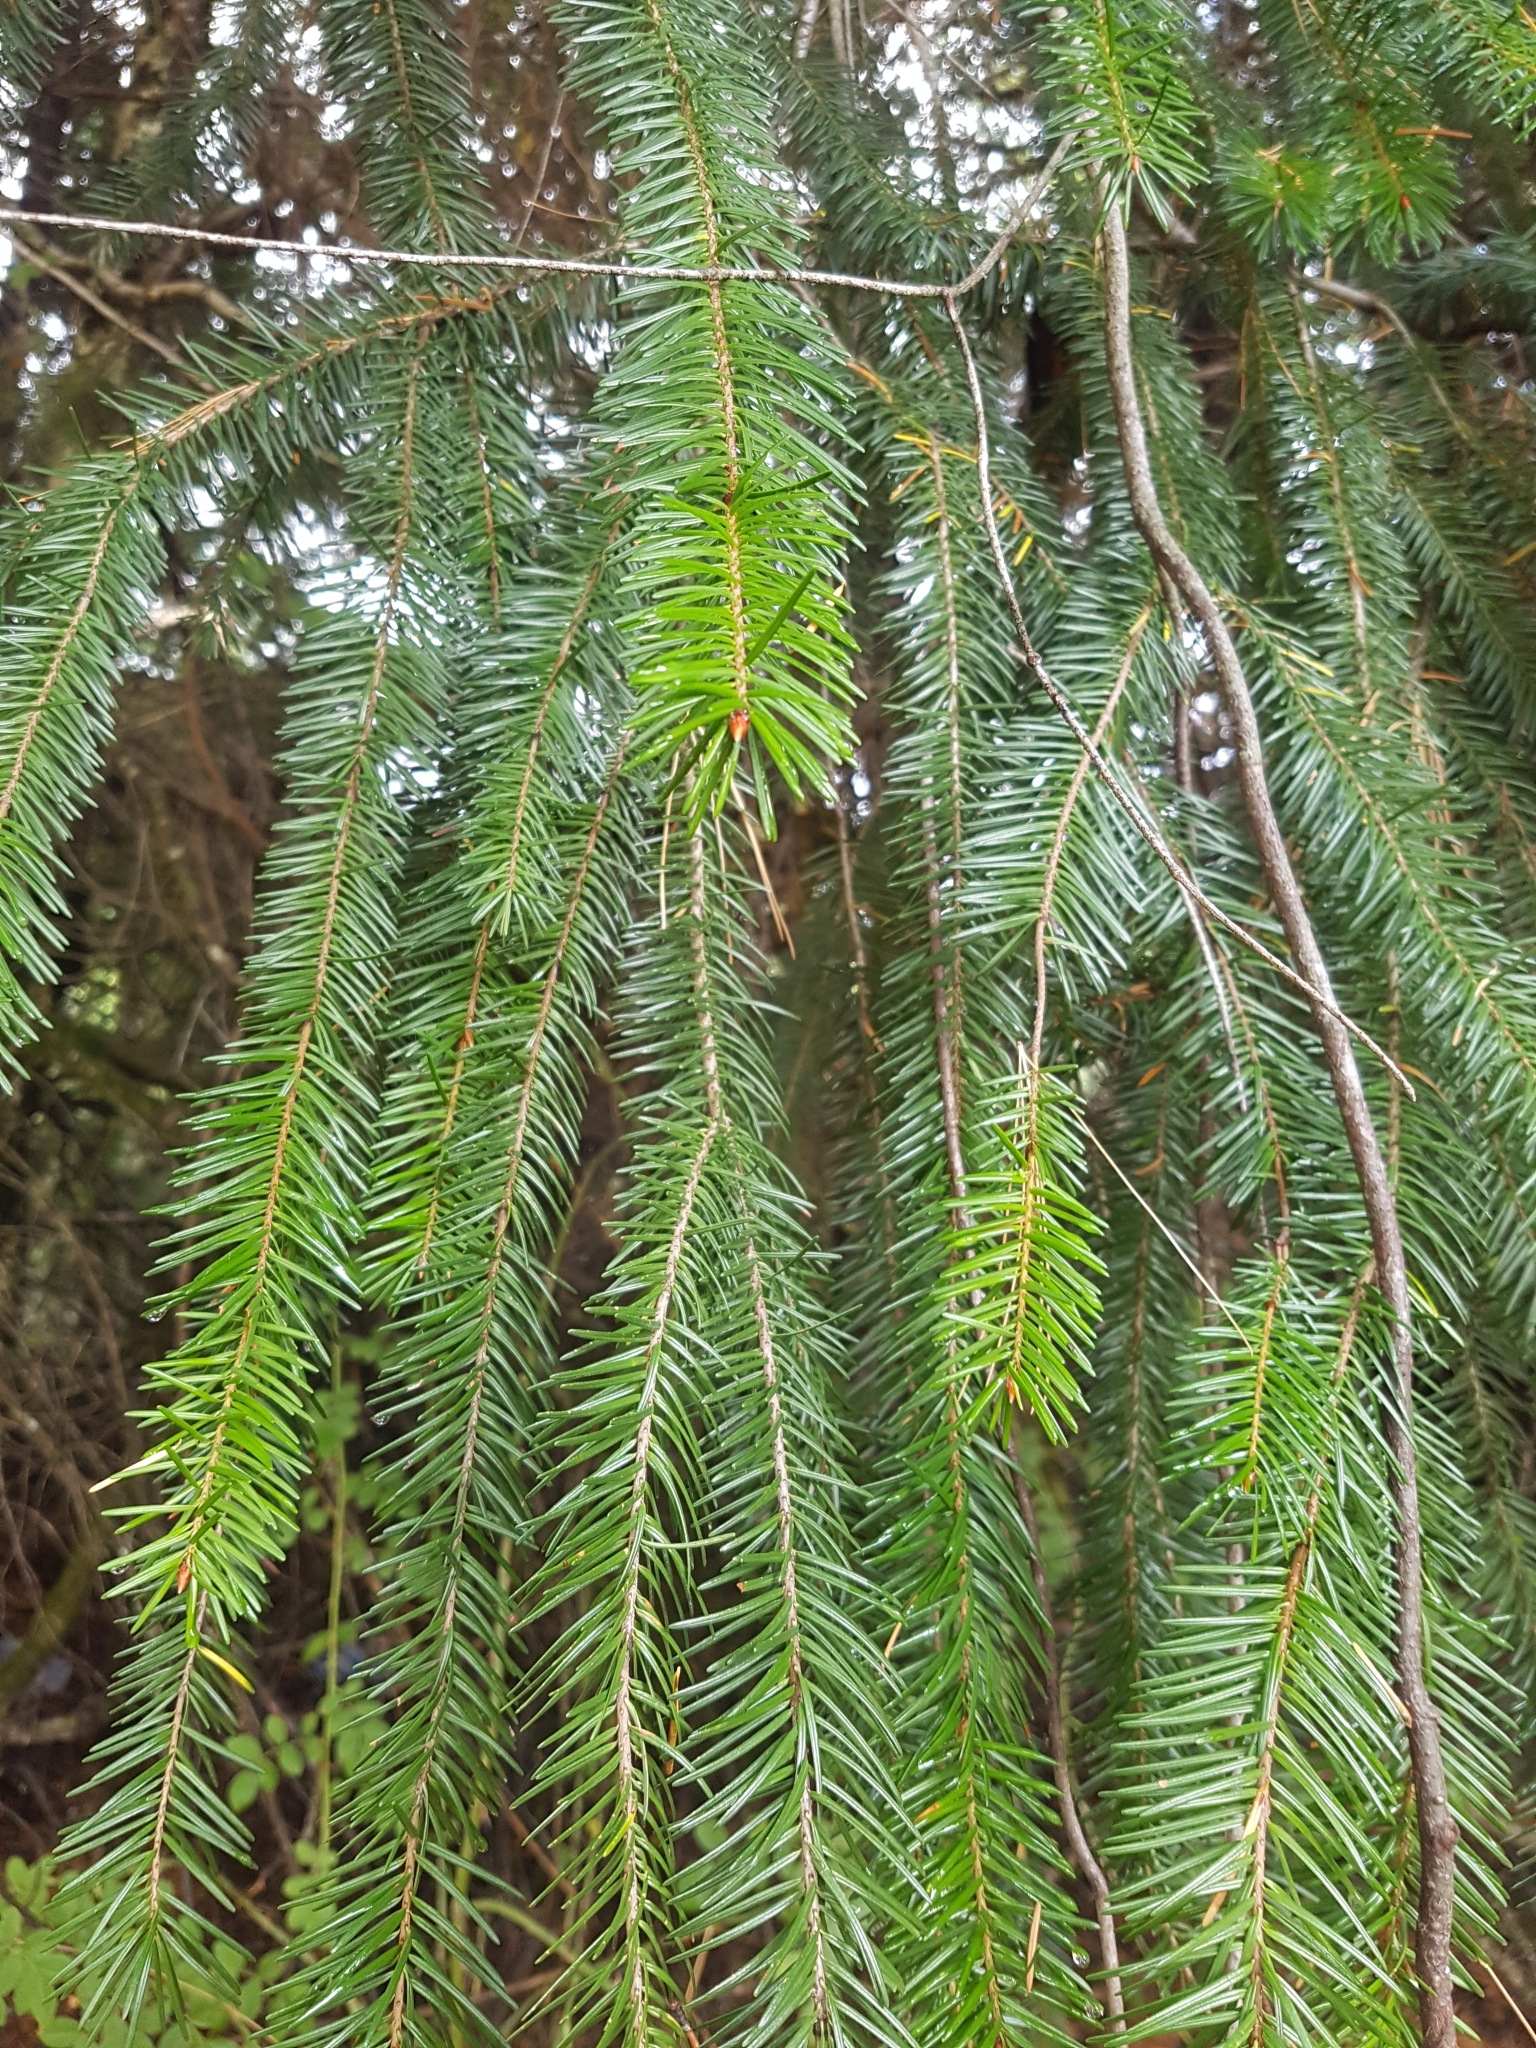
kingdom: Plantae
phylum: Tracheophyta
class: Pinopsida
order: Pinales
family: Pinaceae
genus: Pseudotsuga
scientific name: Pseudotsuga menziesii
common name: Douglas fir
